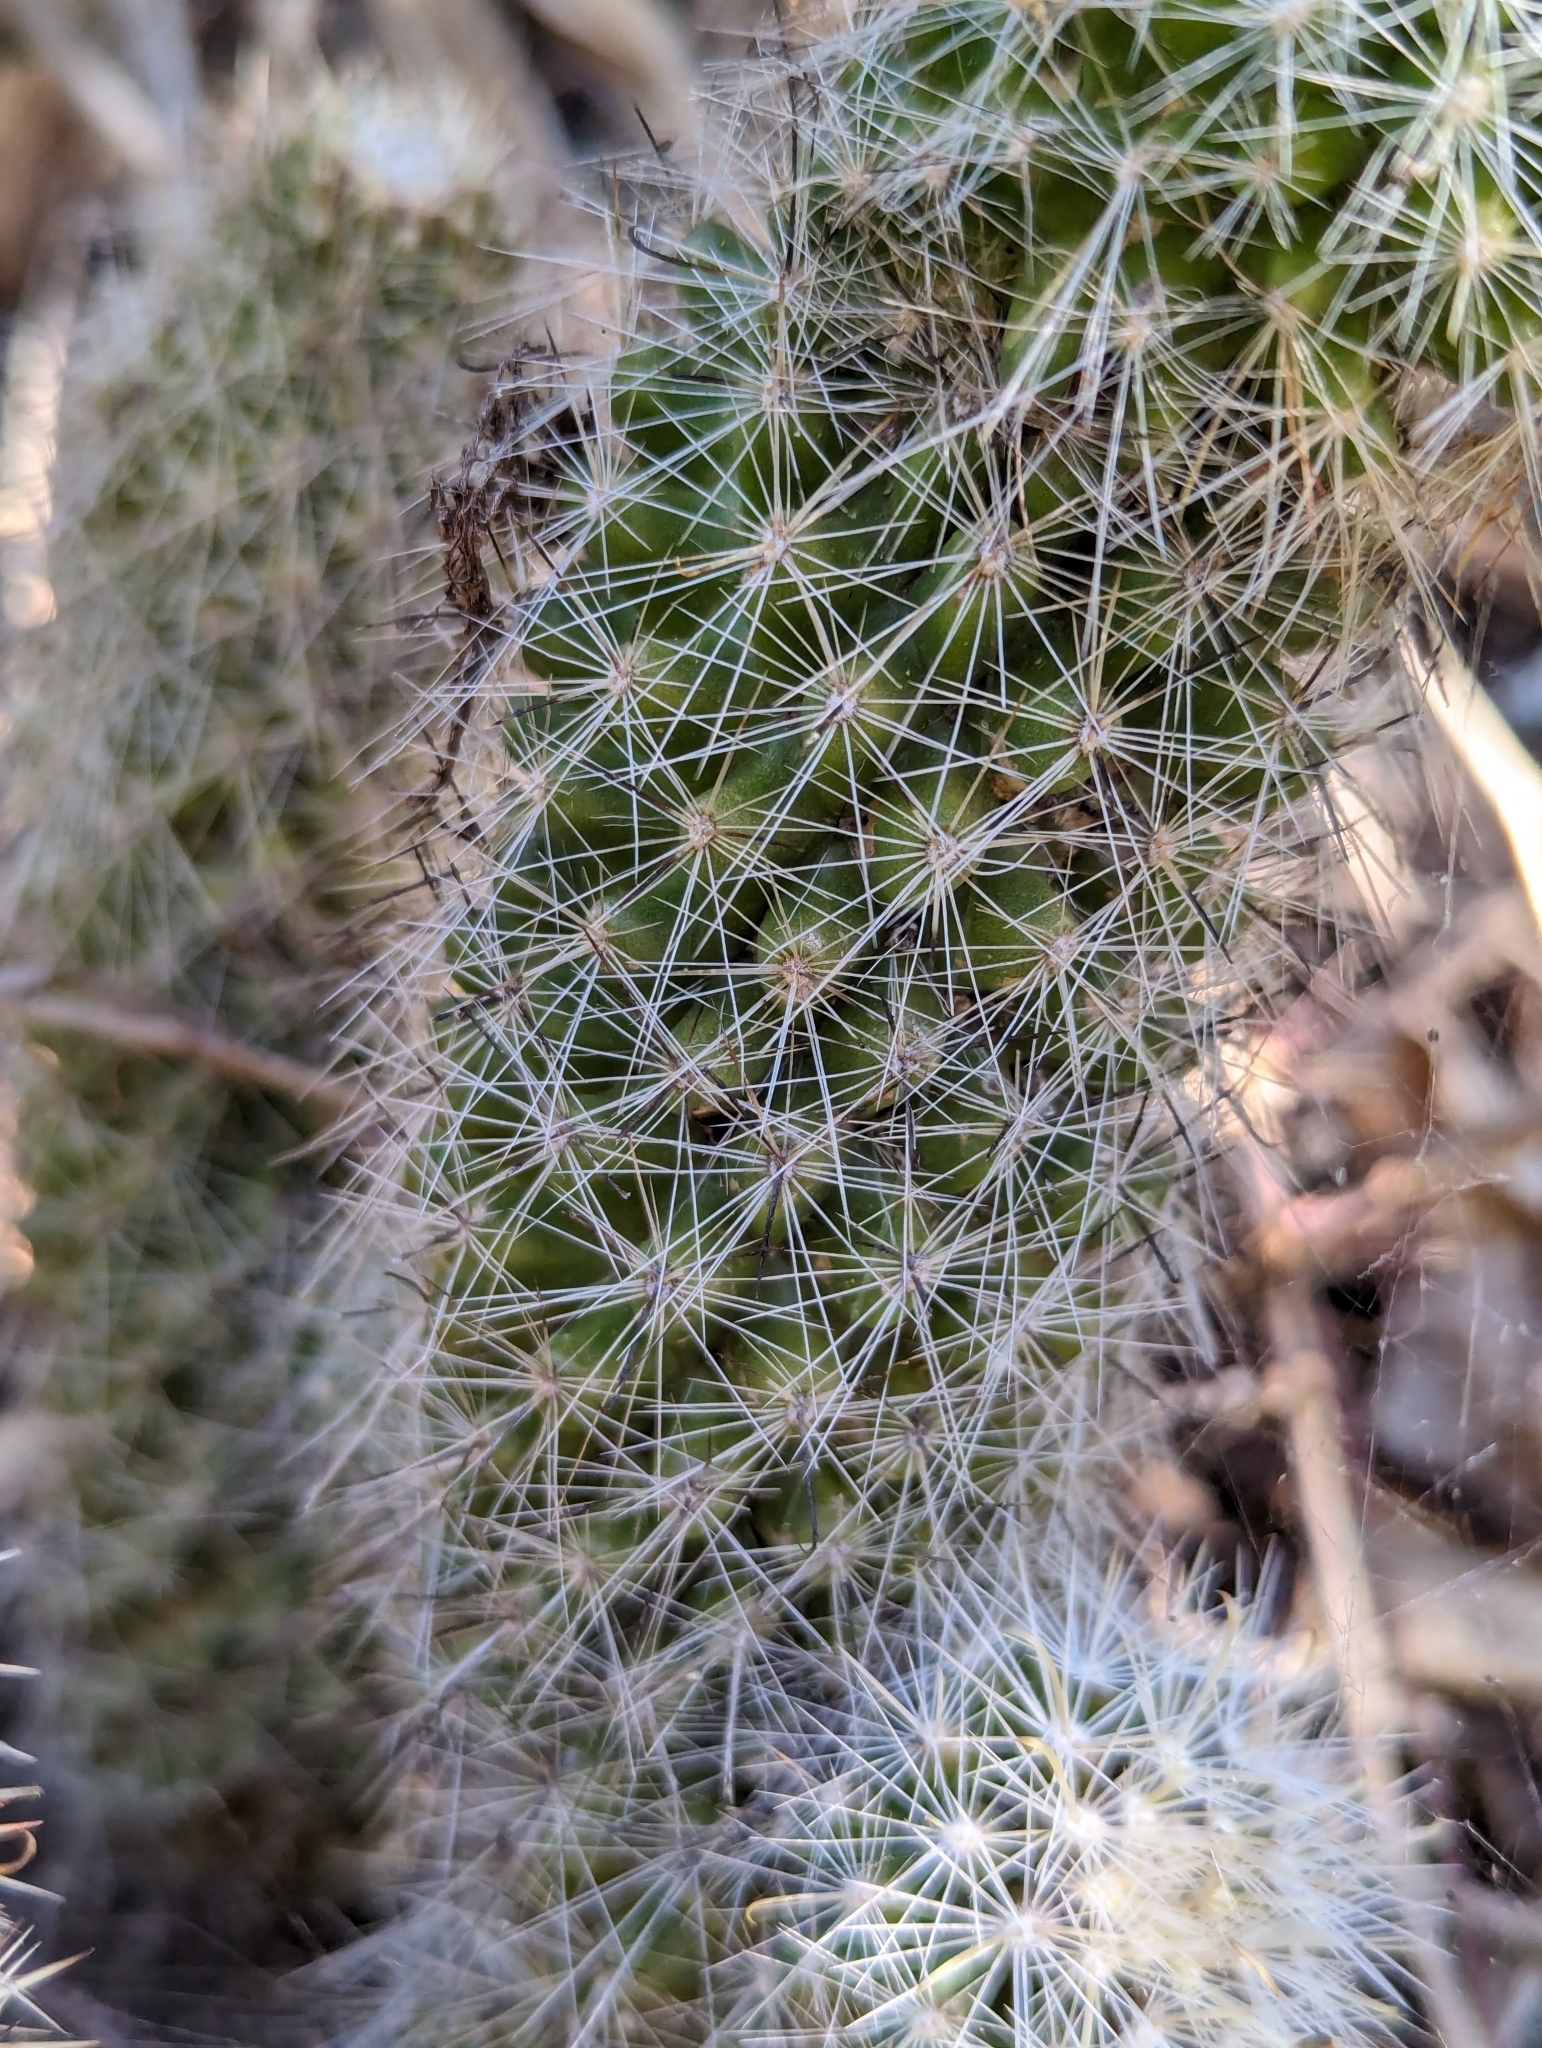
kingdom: Plantae
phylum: Tracheophyta
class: Magnoliopsida
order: Caryophyllales
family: Cactaceae
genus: Cochemiea
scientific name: Cochemiea phitauiana
